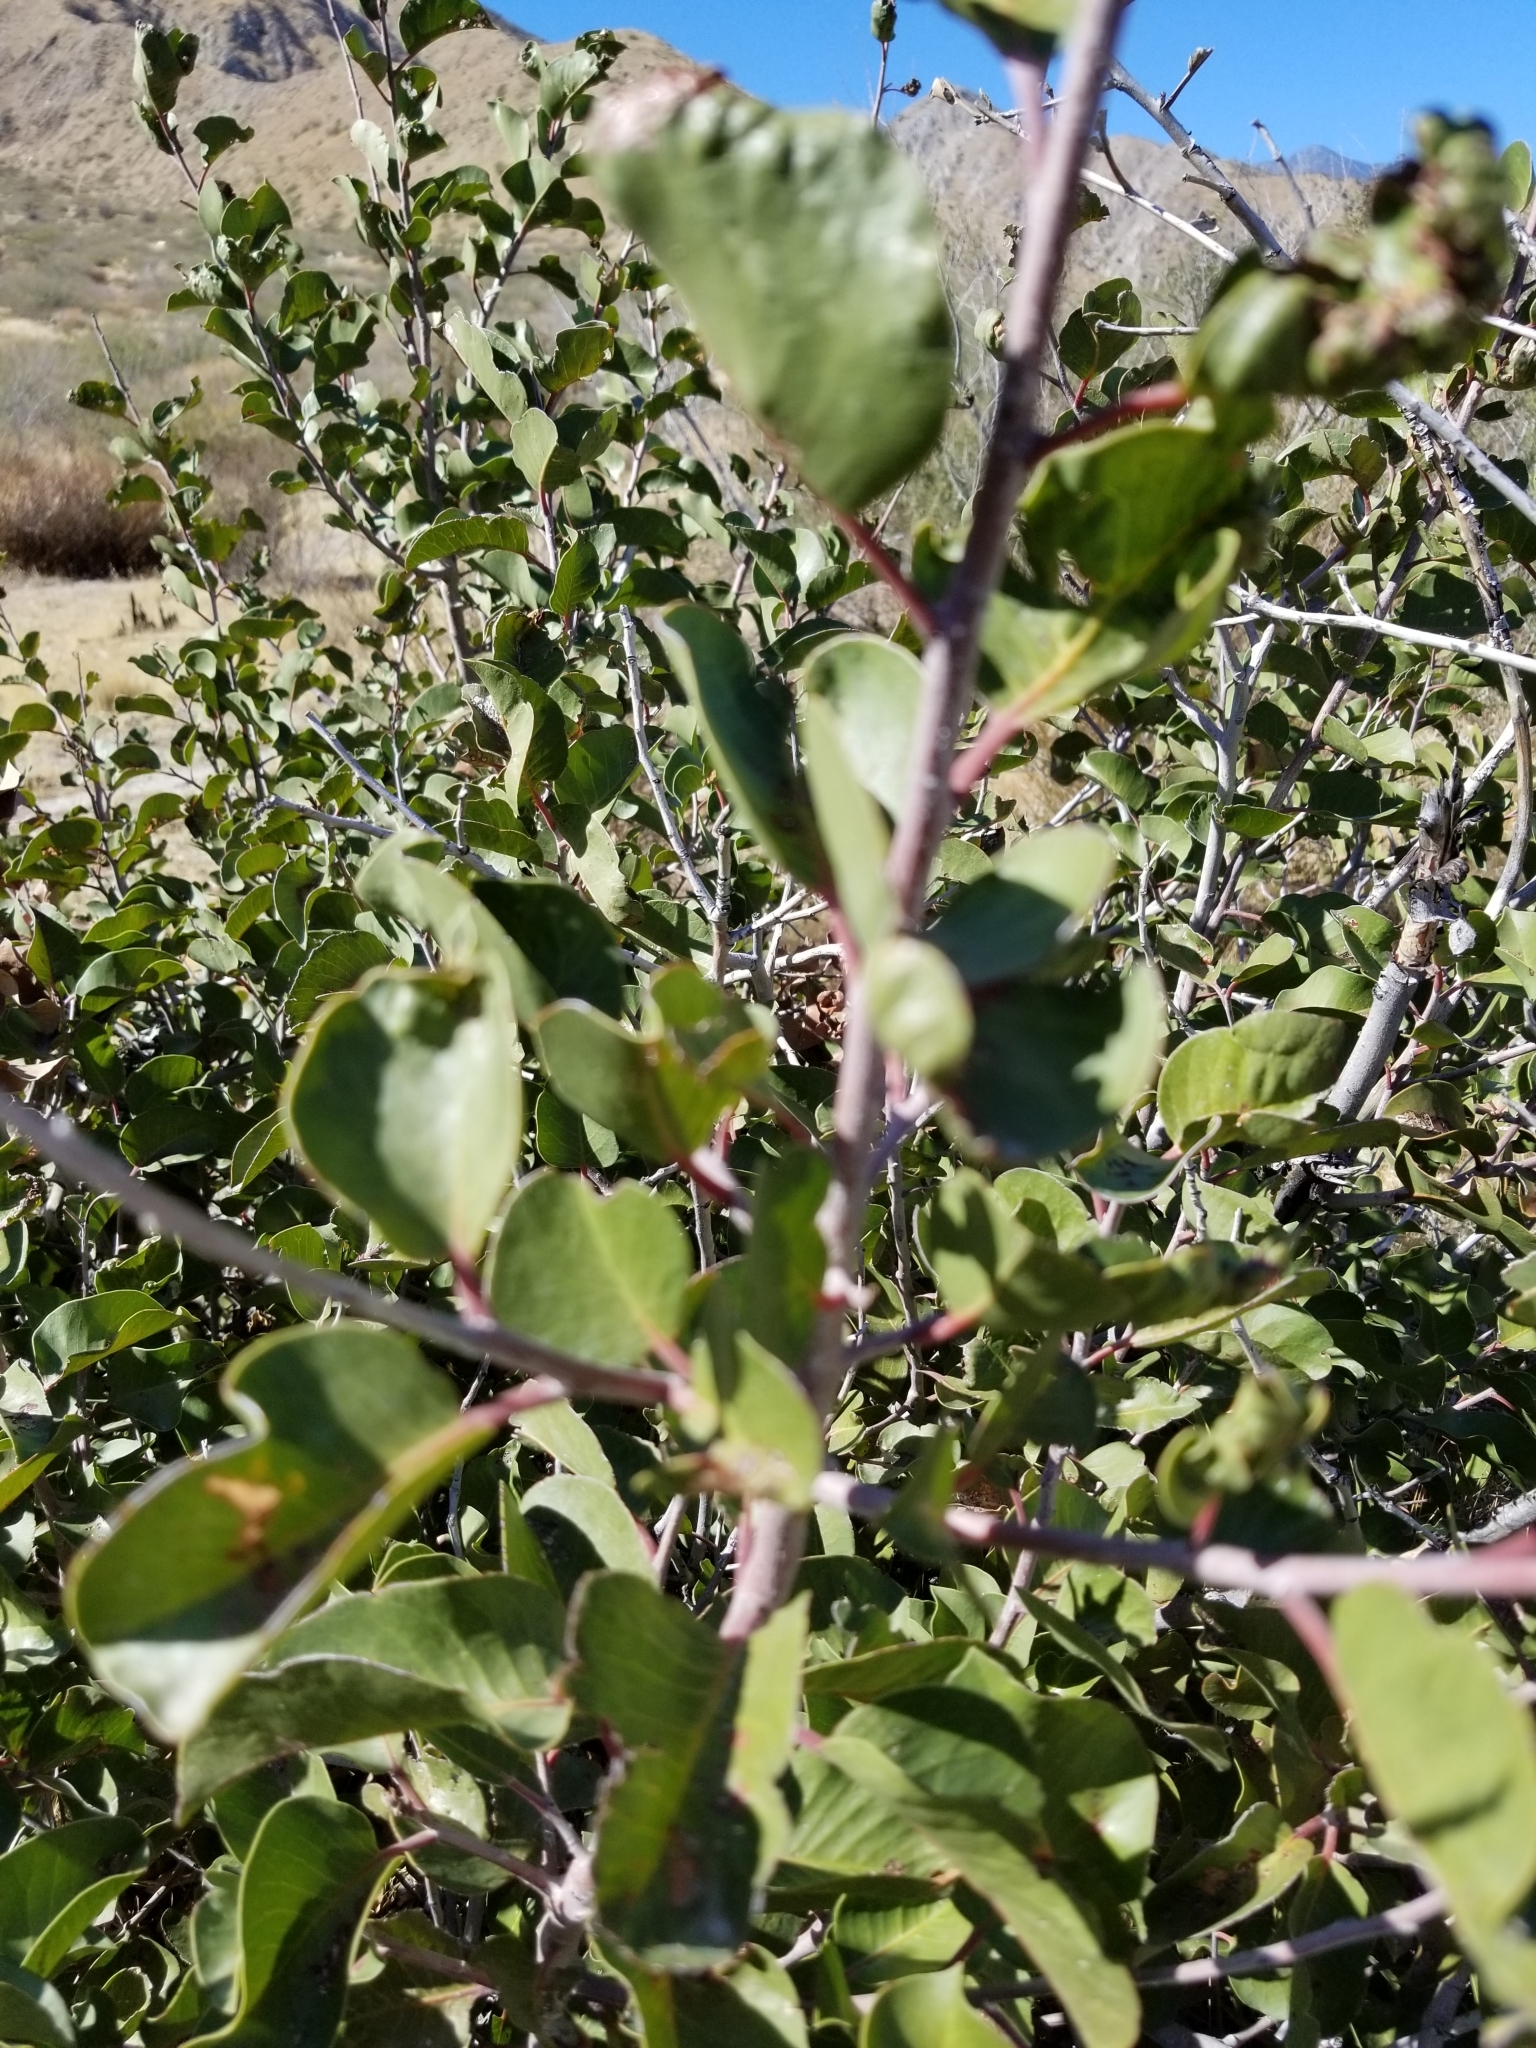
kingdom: Plantae
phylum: Tracheophyta
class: Magnoliopsida
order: Sapindales
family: Anacardiaceae
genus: Rhus
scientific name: Rhus ovata
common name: Sugar sumac
